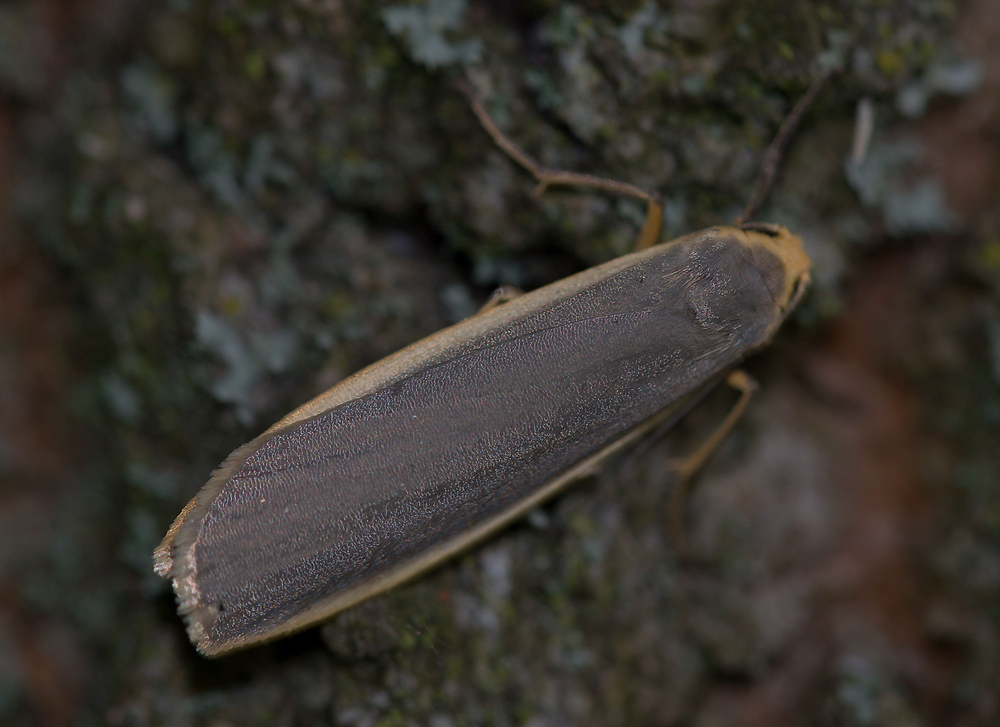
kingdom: Animalia
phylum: Arthropoda
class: Insecta
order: Lepidoptera
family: Erebidae
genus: Nyea
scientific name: Nyea lurideola
